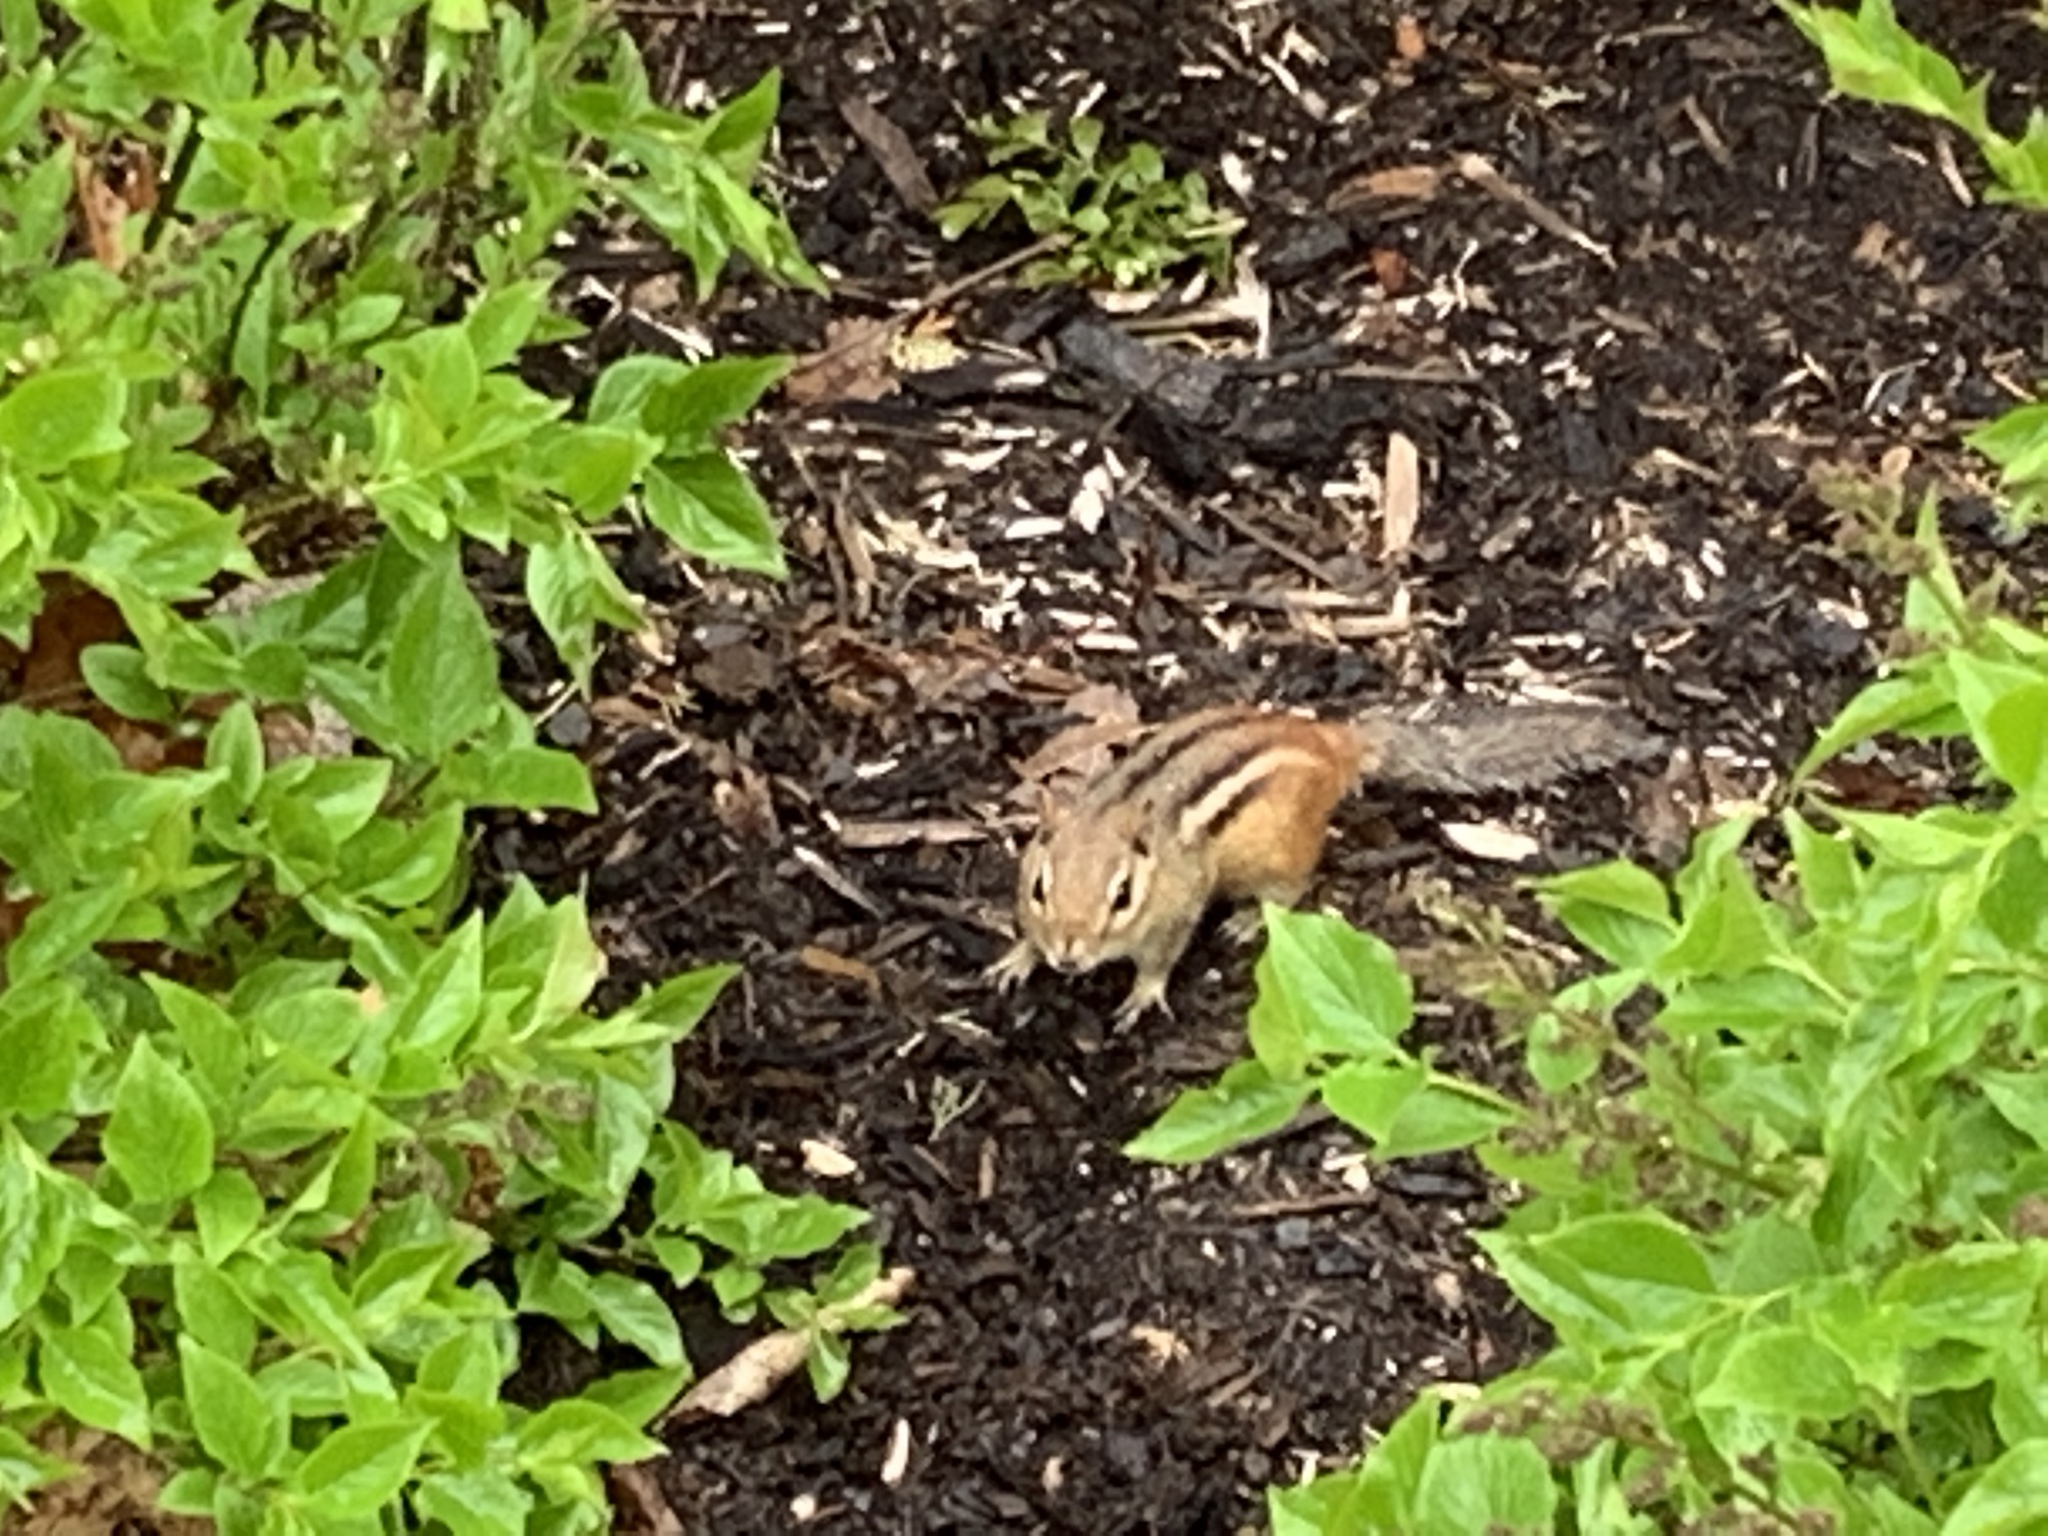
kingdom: Animalia
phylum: Chordata
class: Mammalia
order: Rodentia
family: Sciuridae
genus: Tamias
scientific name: Tamias striatus
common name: Eastern chipmunk
